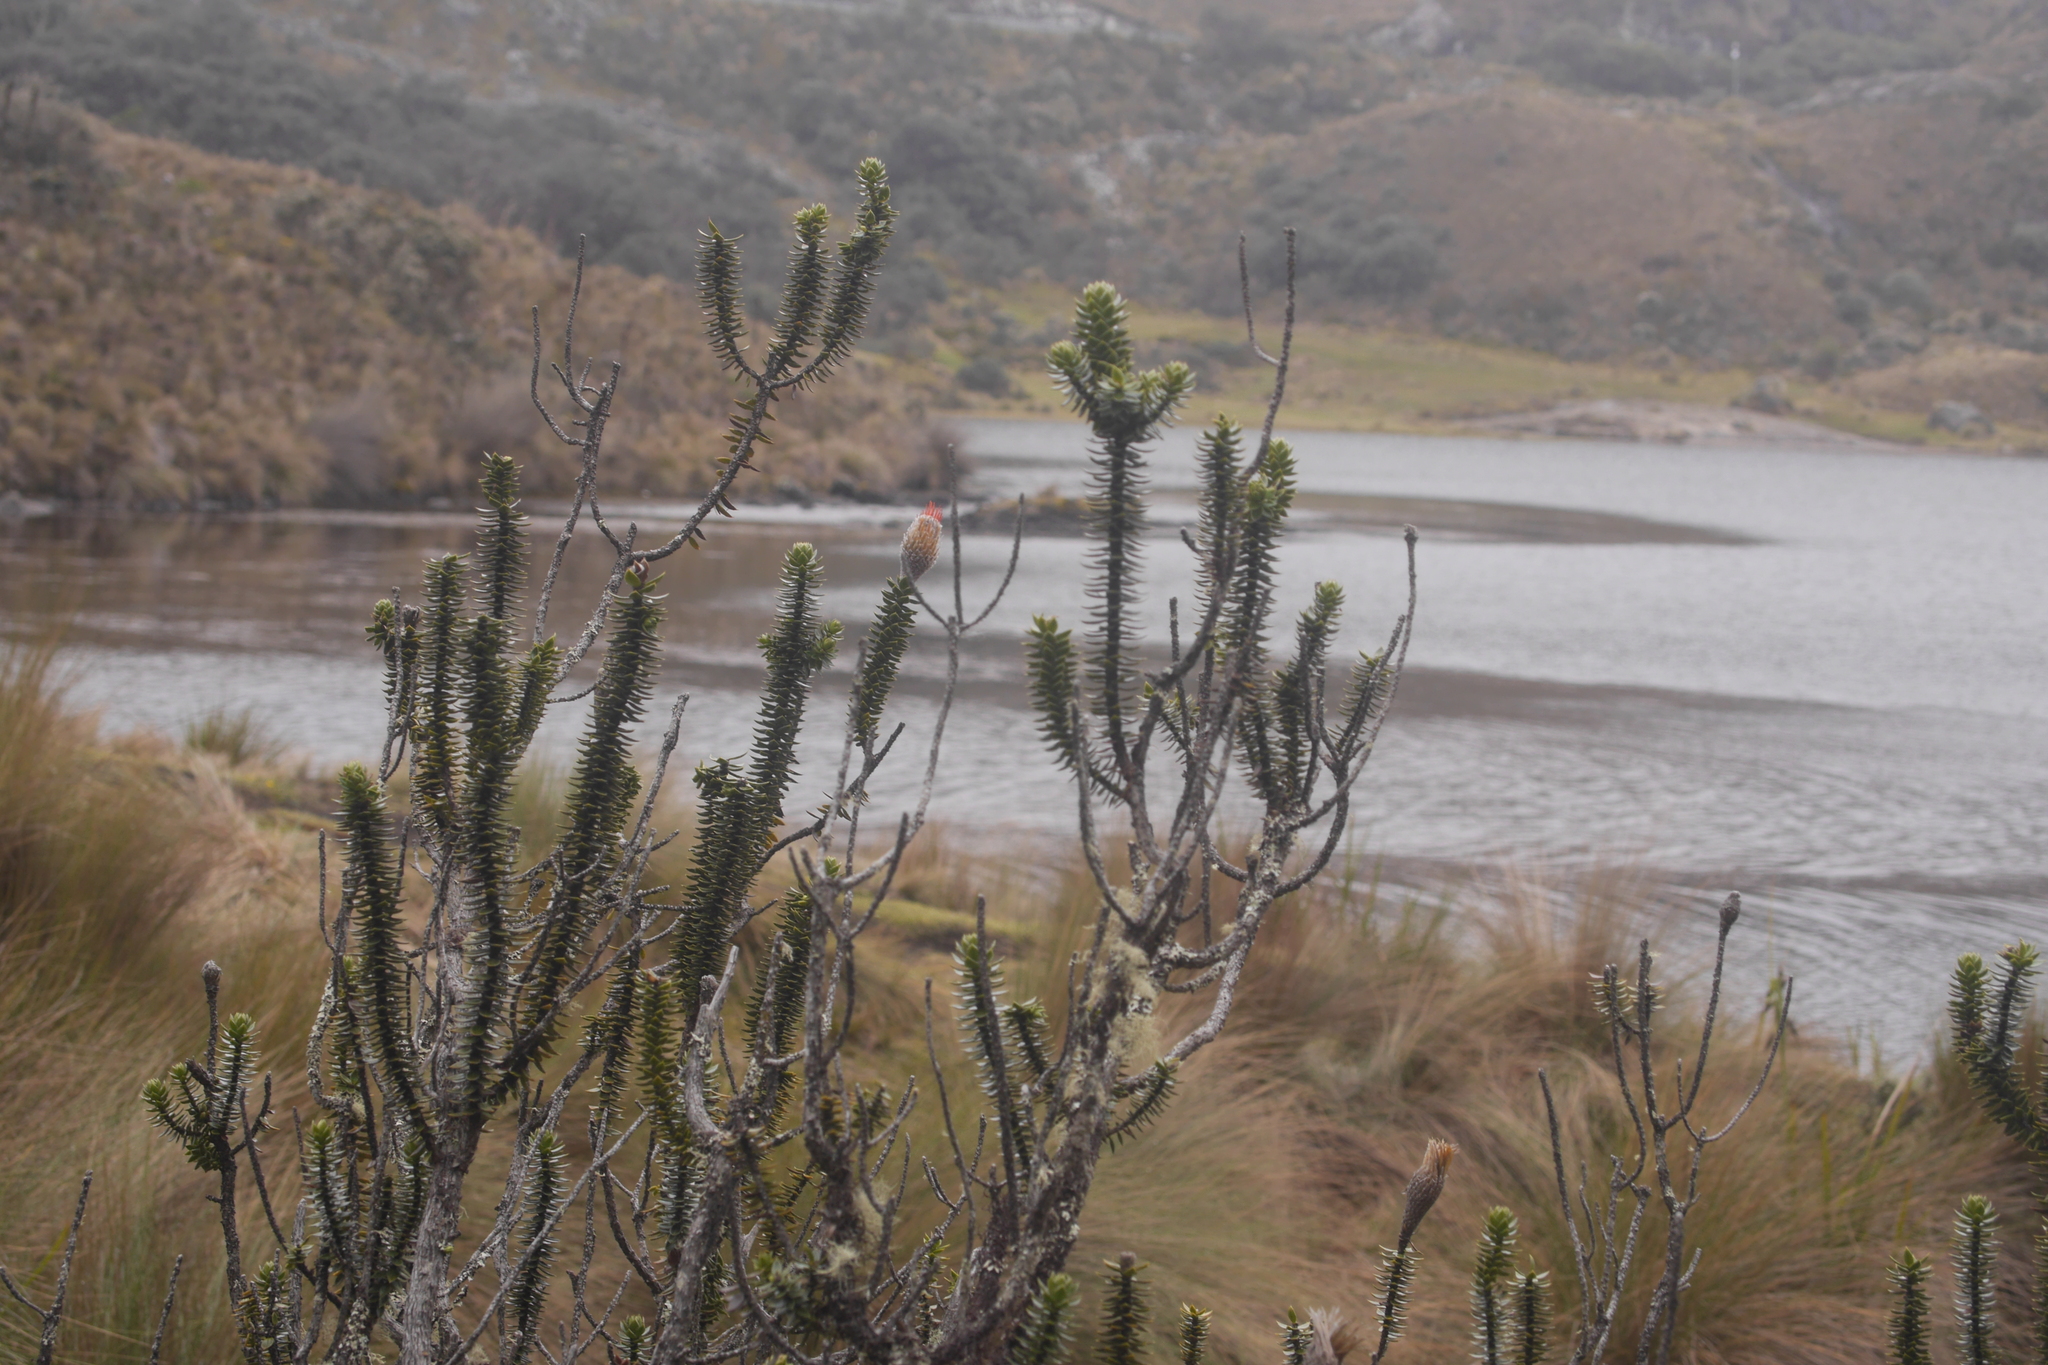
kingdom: Plantae
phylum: Tracheophyta
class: Magnoliopsida
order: Asterales
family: Asteraceae
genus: Chuquiraga
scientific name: Chuquiraga jussieui
